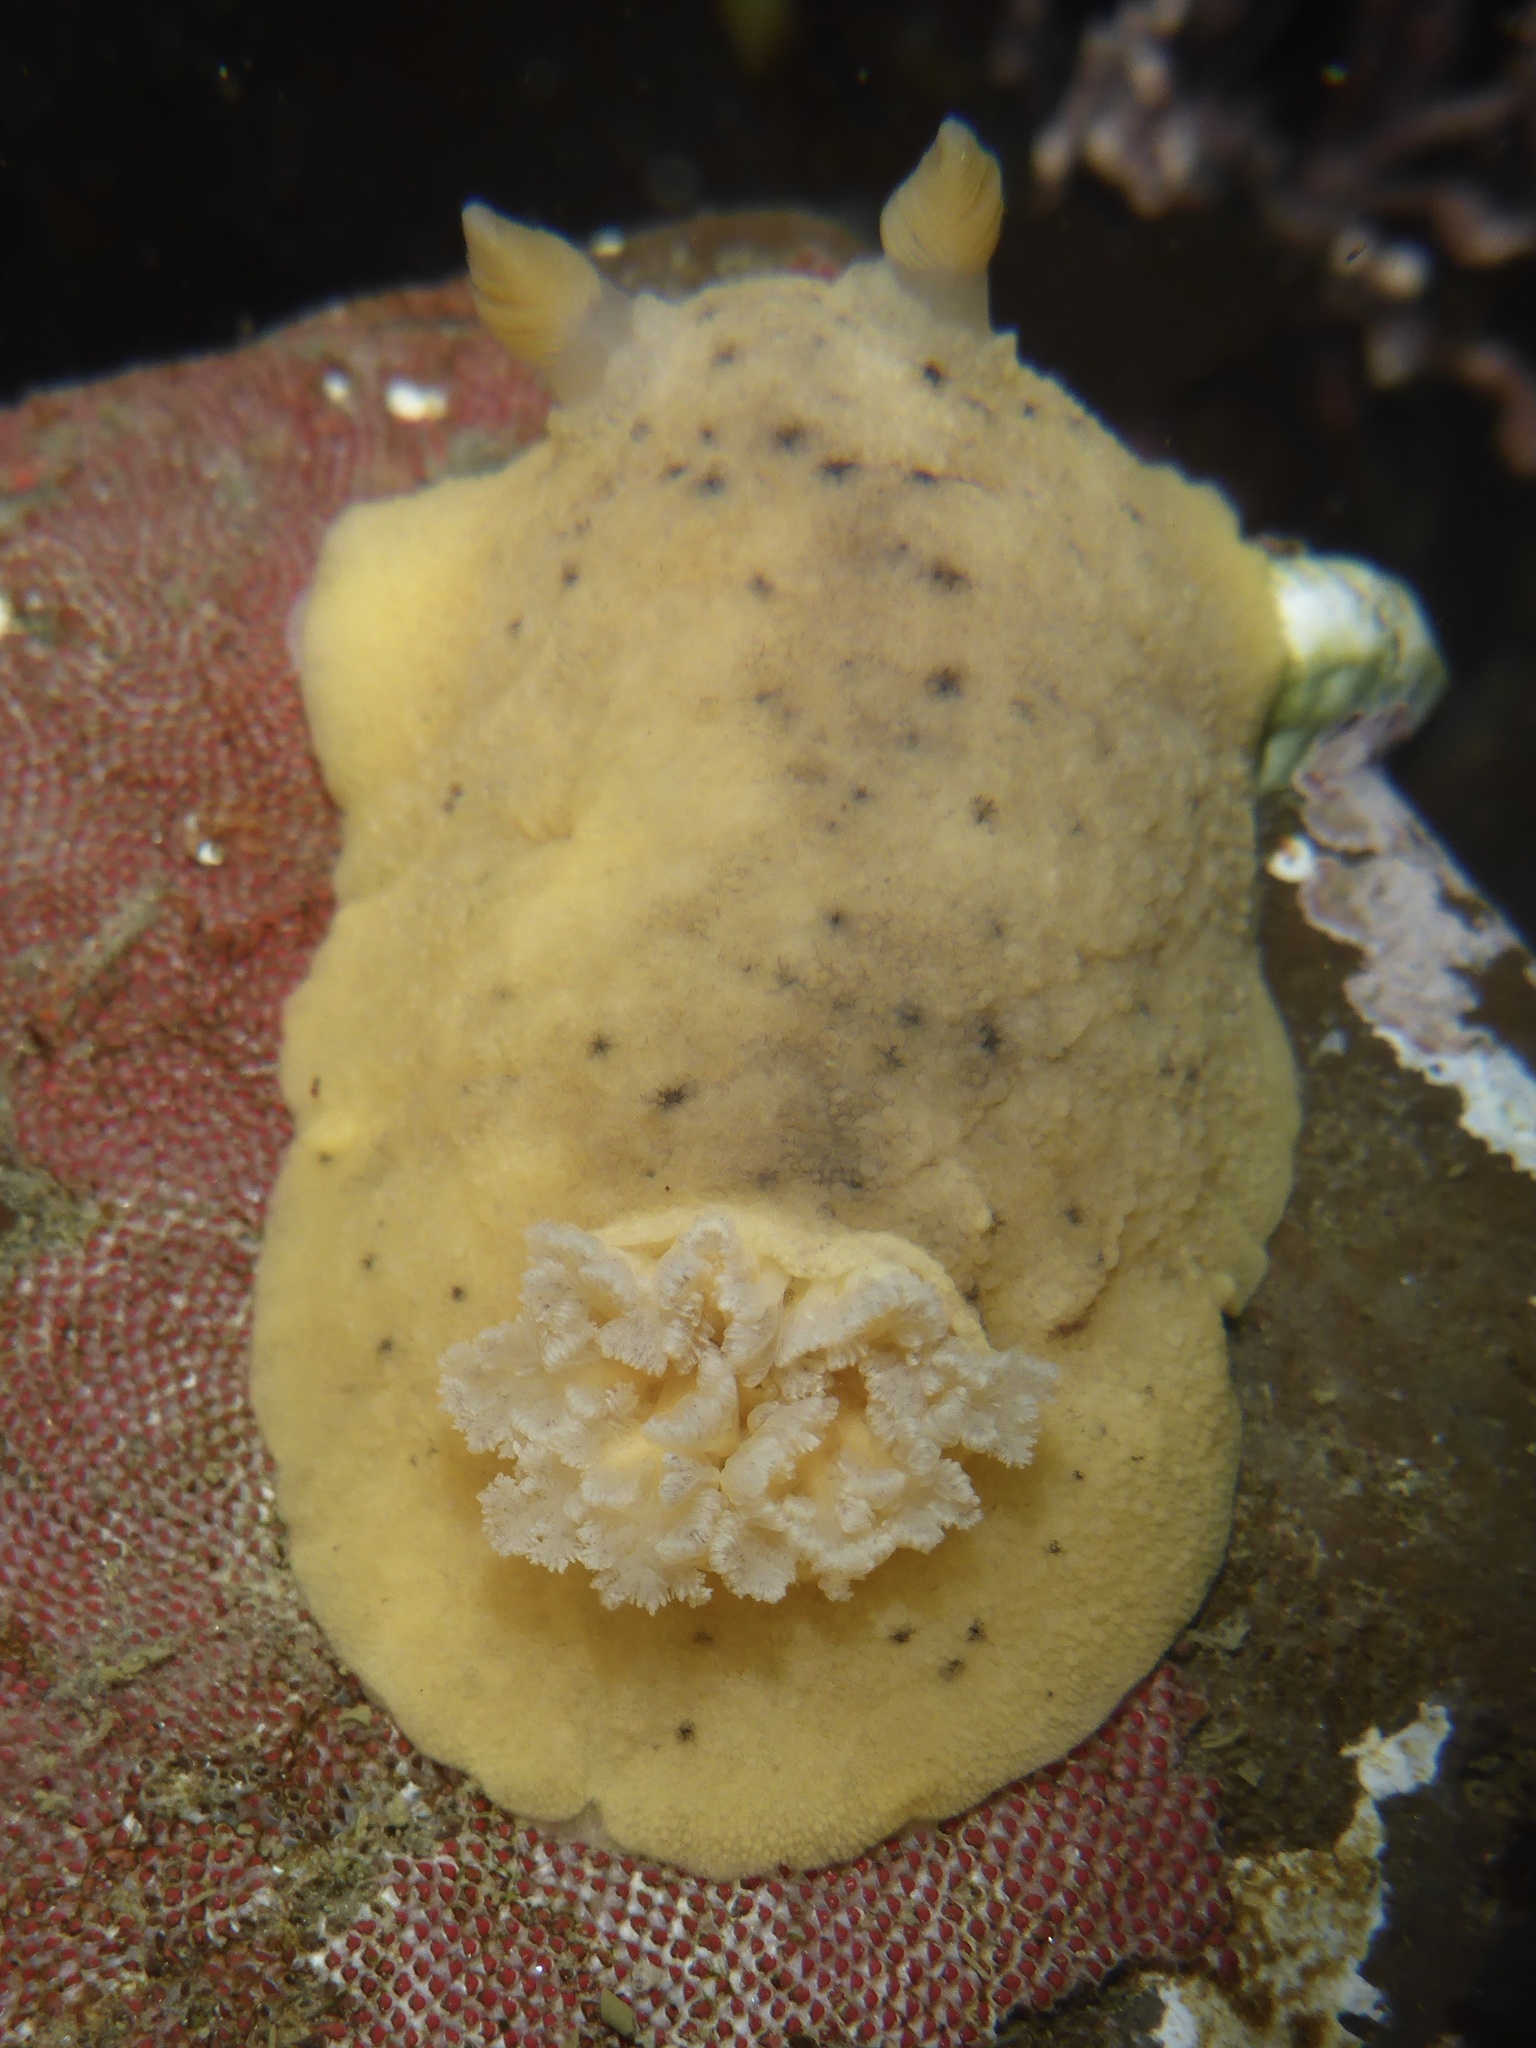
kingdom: Animalia
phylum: Mollusca
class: Gastropoda
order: Nudibranchia
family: Discodorididae
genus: Geitodoris
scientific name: Geitodoris heathi
